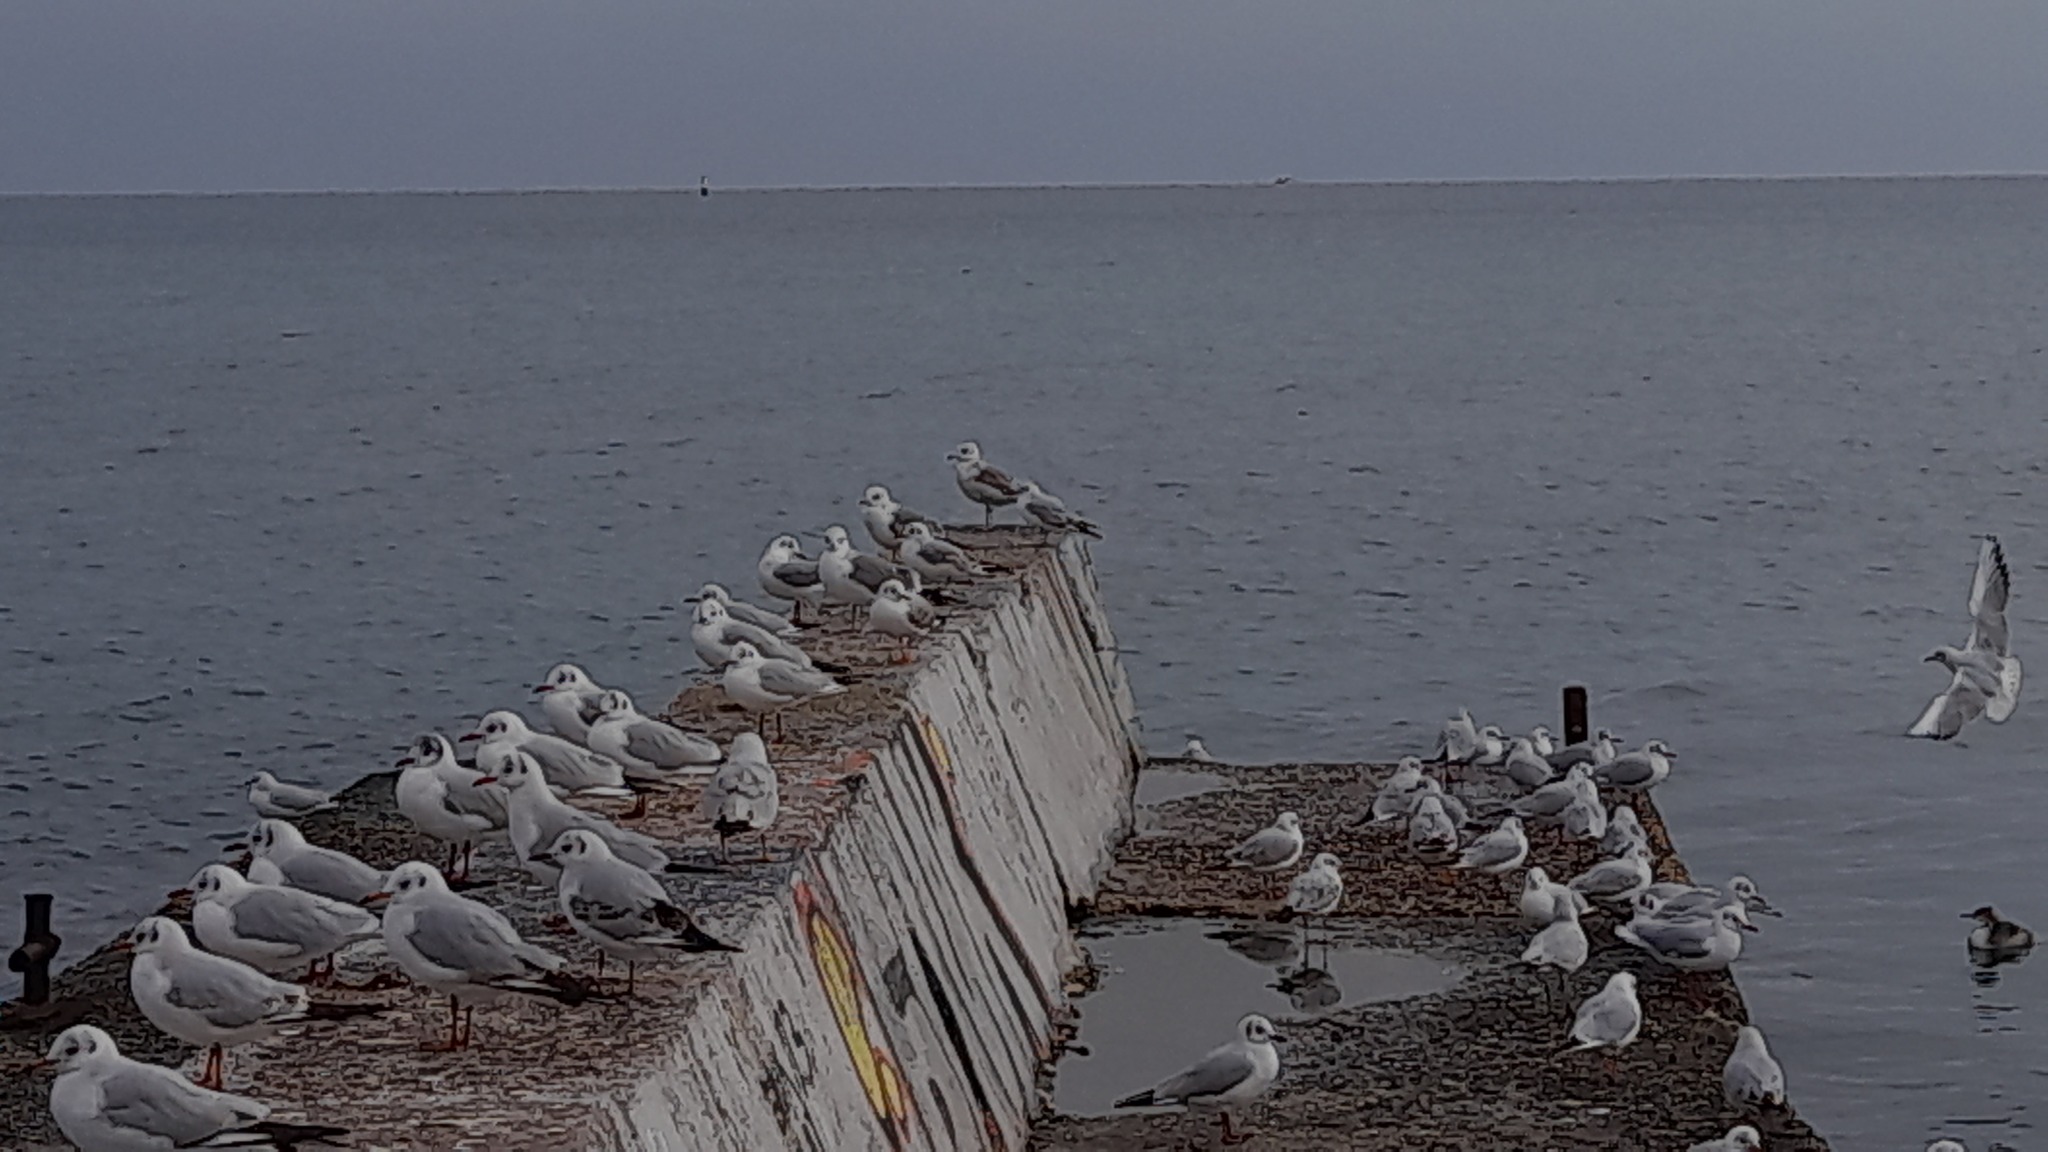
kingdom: Animalia
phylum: Chordata
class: Aves
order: Charadriiformes
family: Laridae
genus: Chroicocephalus
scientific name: Chroicocephalus ridibundus
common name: Black-headed gull
